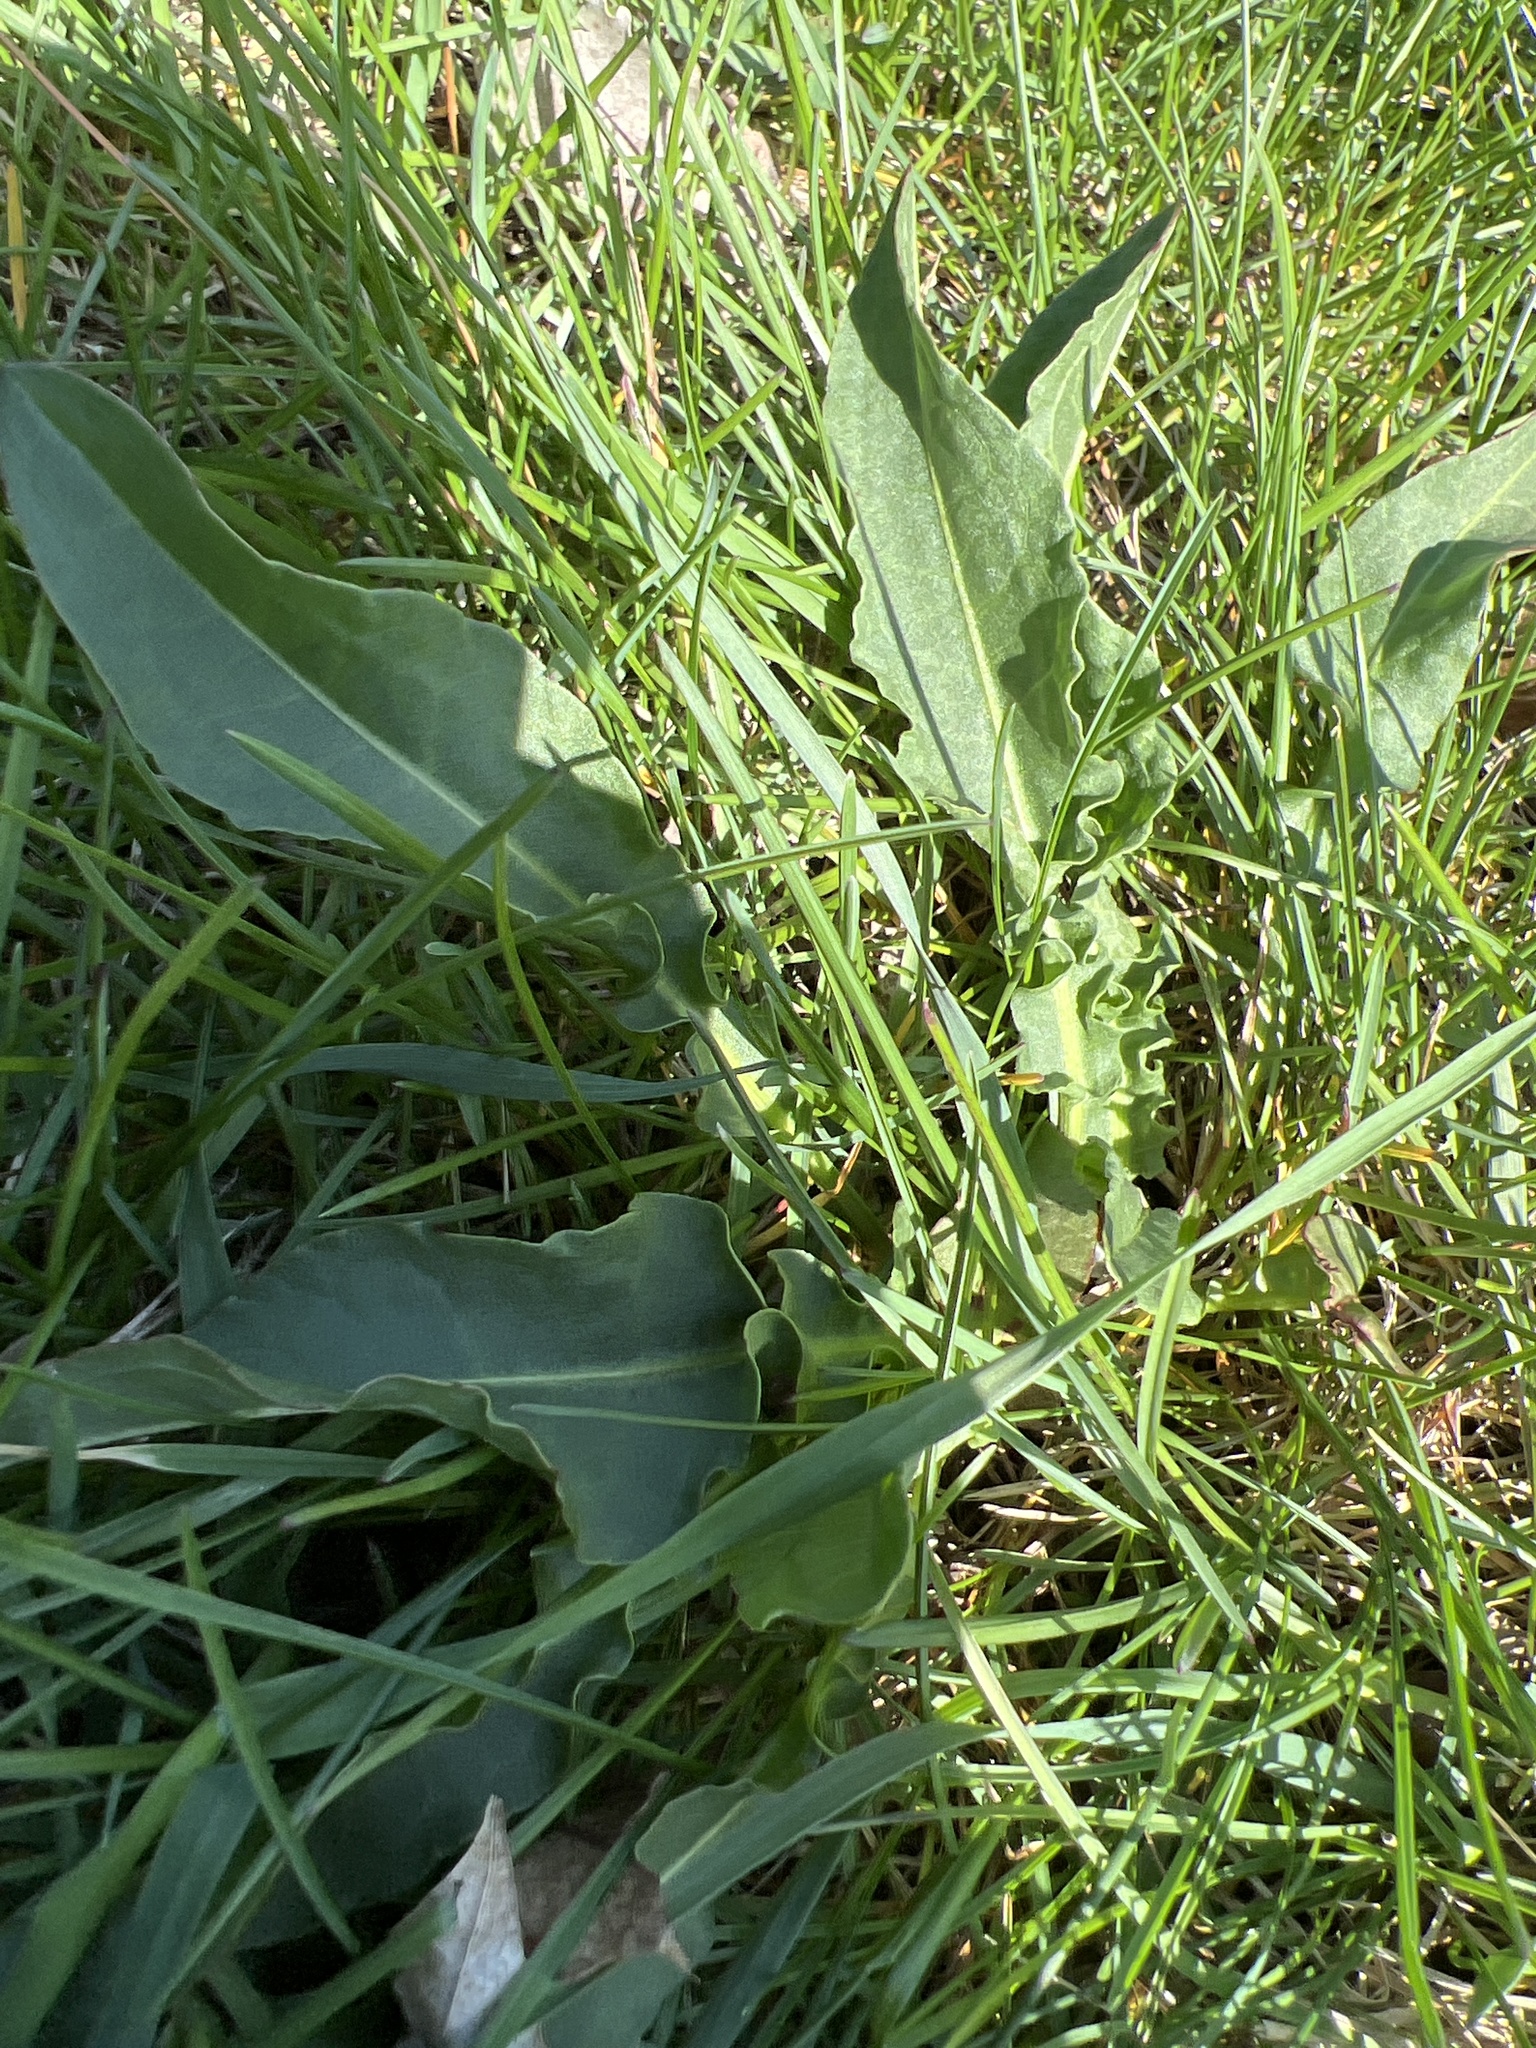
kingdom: Plantae
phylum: Tracheophyta
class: Magnoliopsida
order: Caryophyllales
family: Polygonaceae
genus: Rumex
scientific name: Rumex crispus
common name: Curled dock
